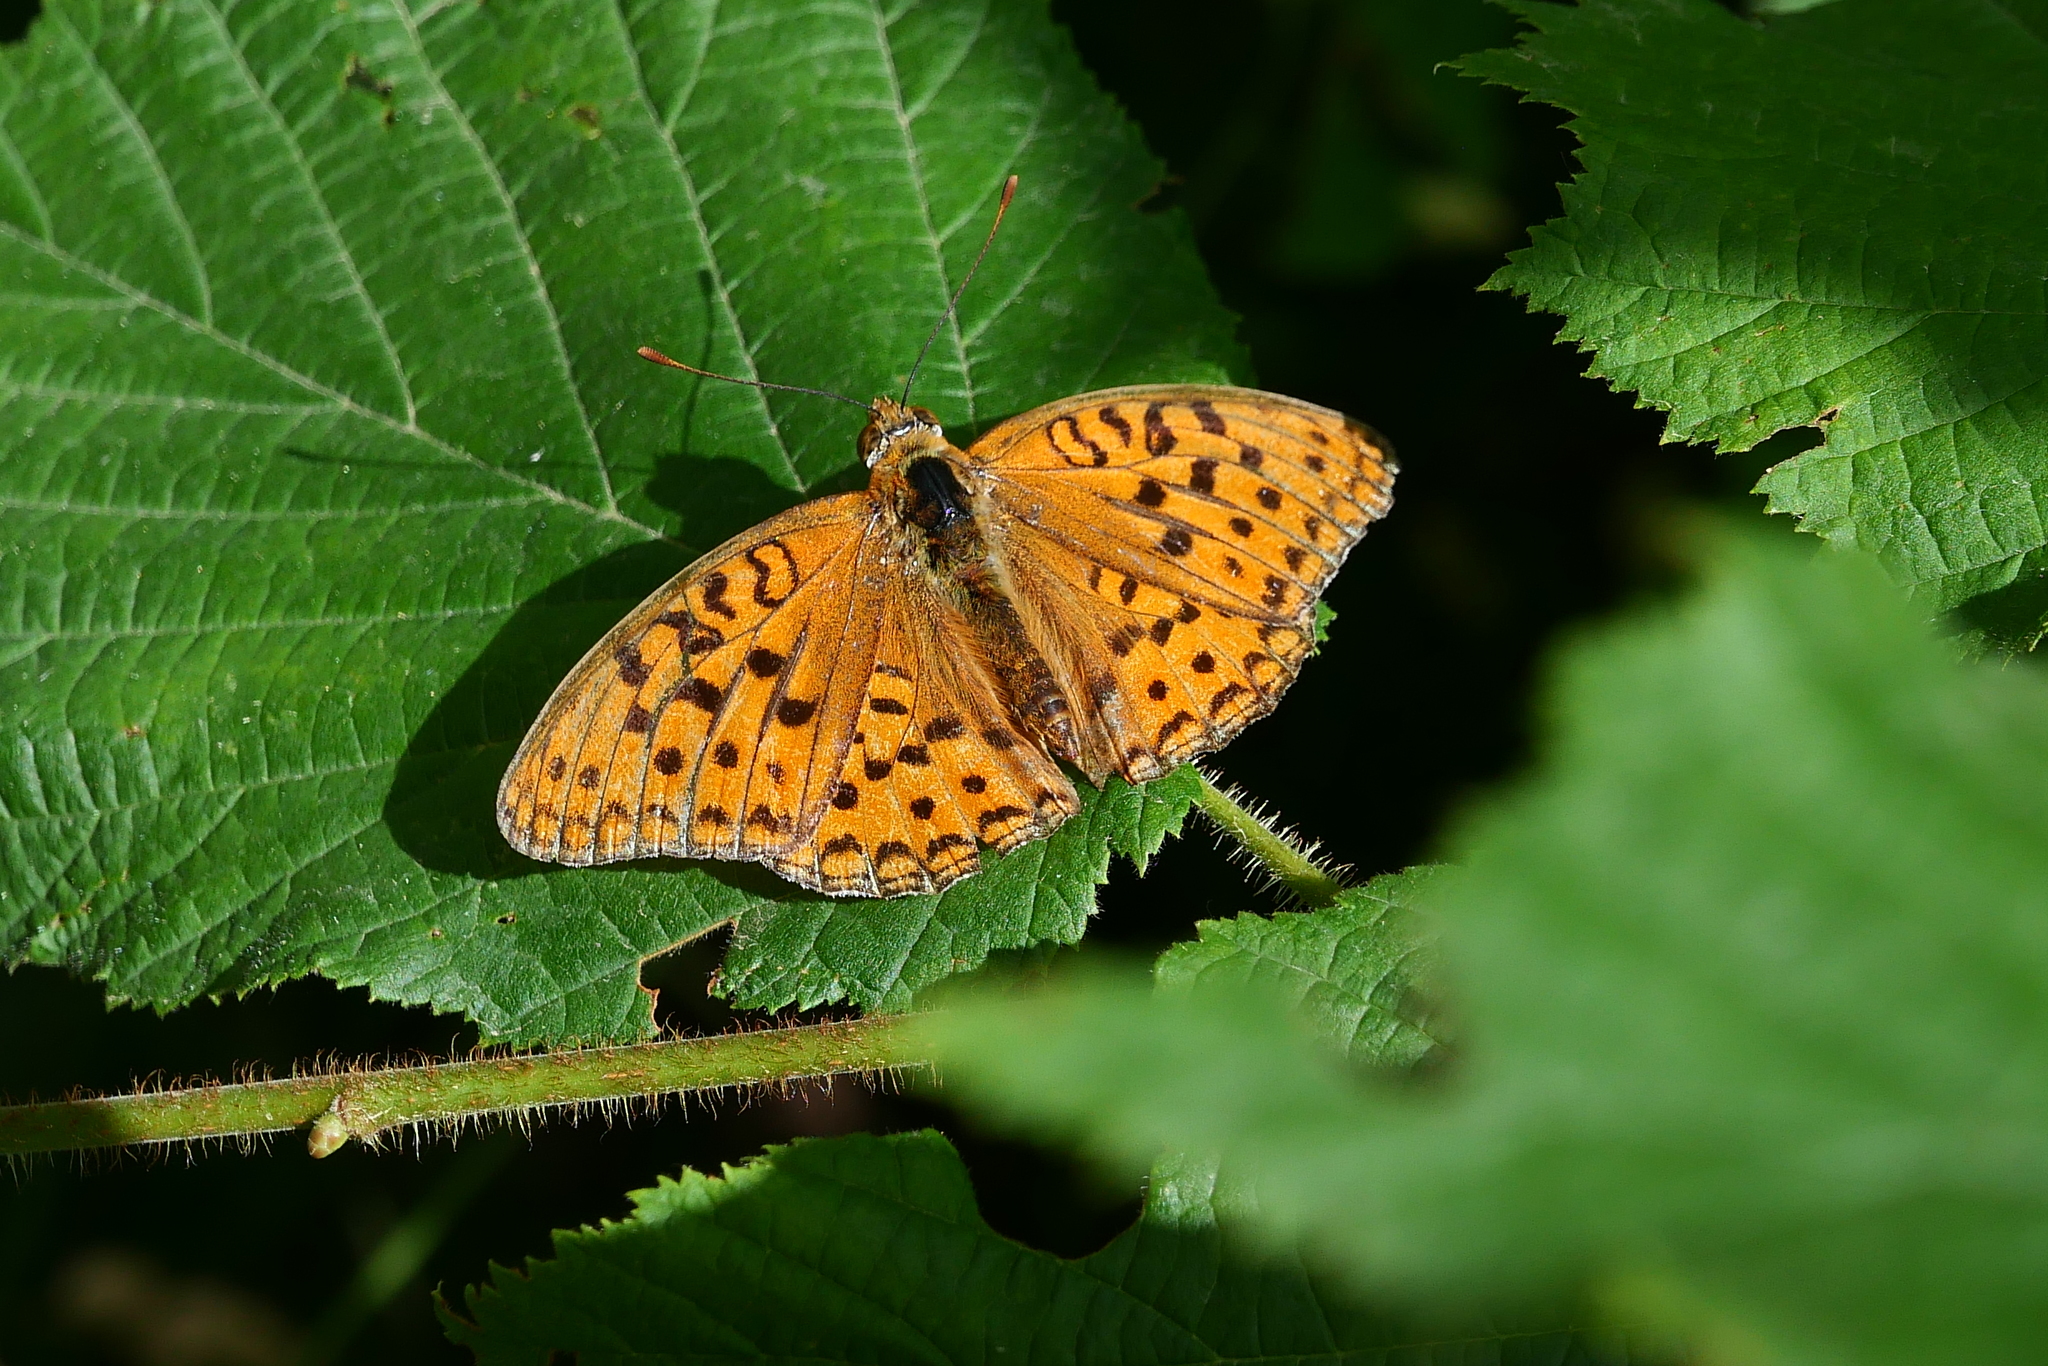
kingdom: Animalia
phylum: Arthropoda
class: Insecta
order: Lepidoptera
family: Nymphalidae
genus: Fabriciana
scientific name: Fabriciana adippe
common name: High brown fritillary
